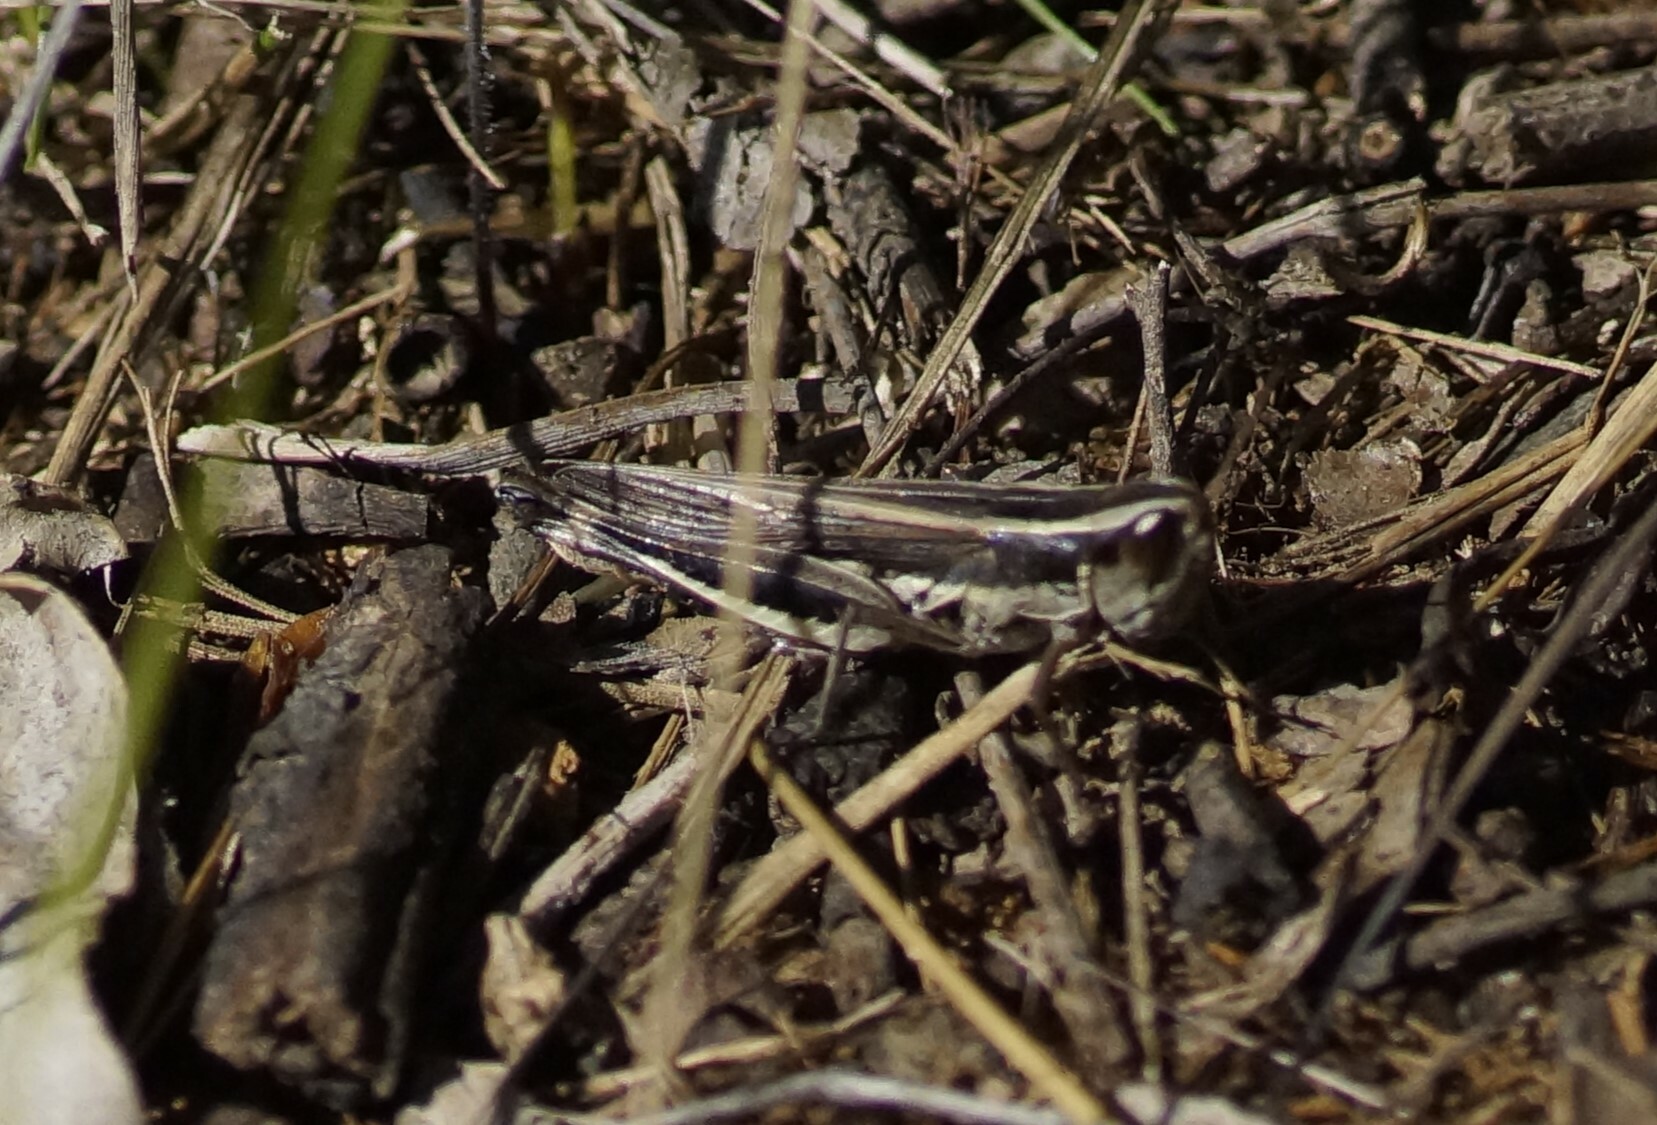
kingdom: Animalia
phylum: Arthropoda
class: Insecta
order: Orthoptera
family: Acrididae
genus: Macrotona
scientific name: Macrotona securiformis
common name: Inland macrotona
